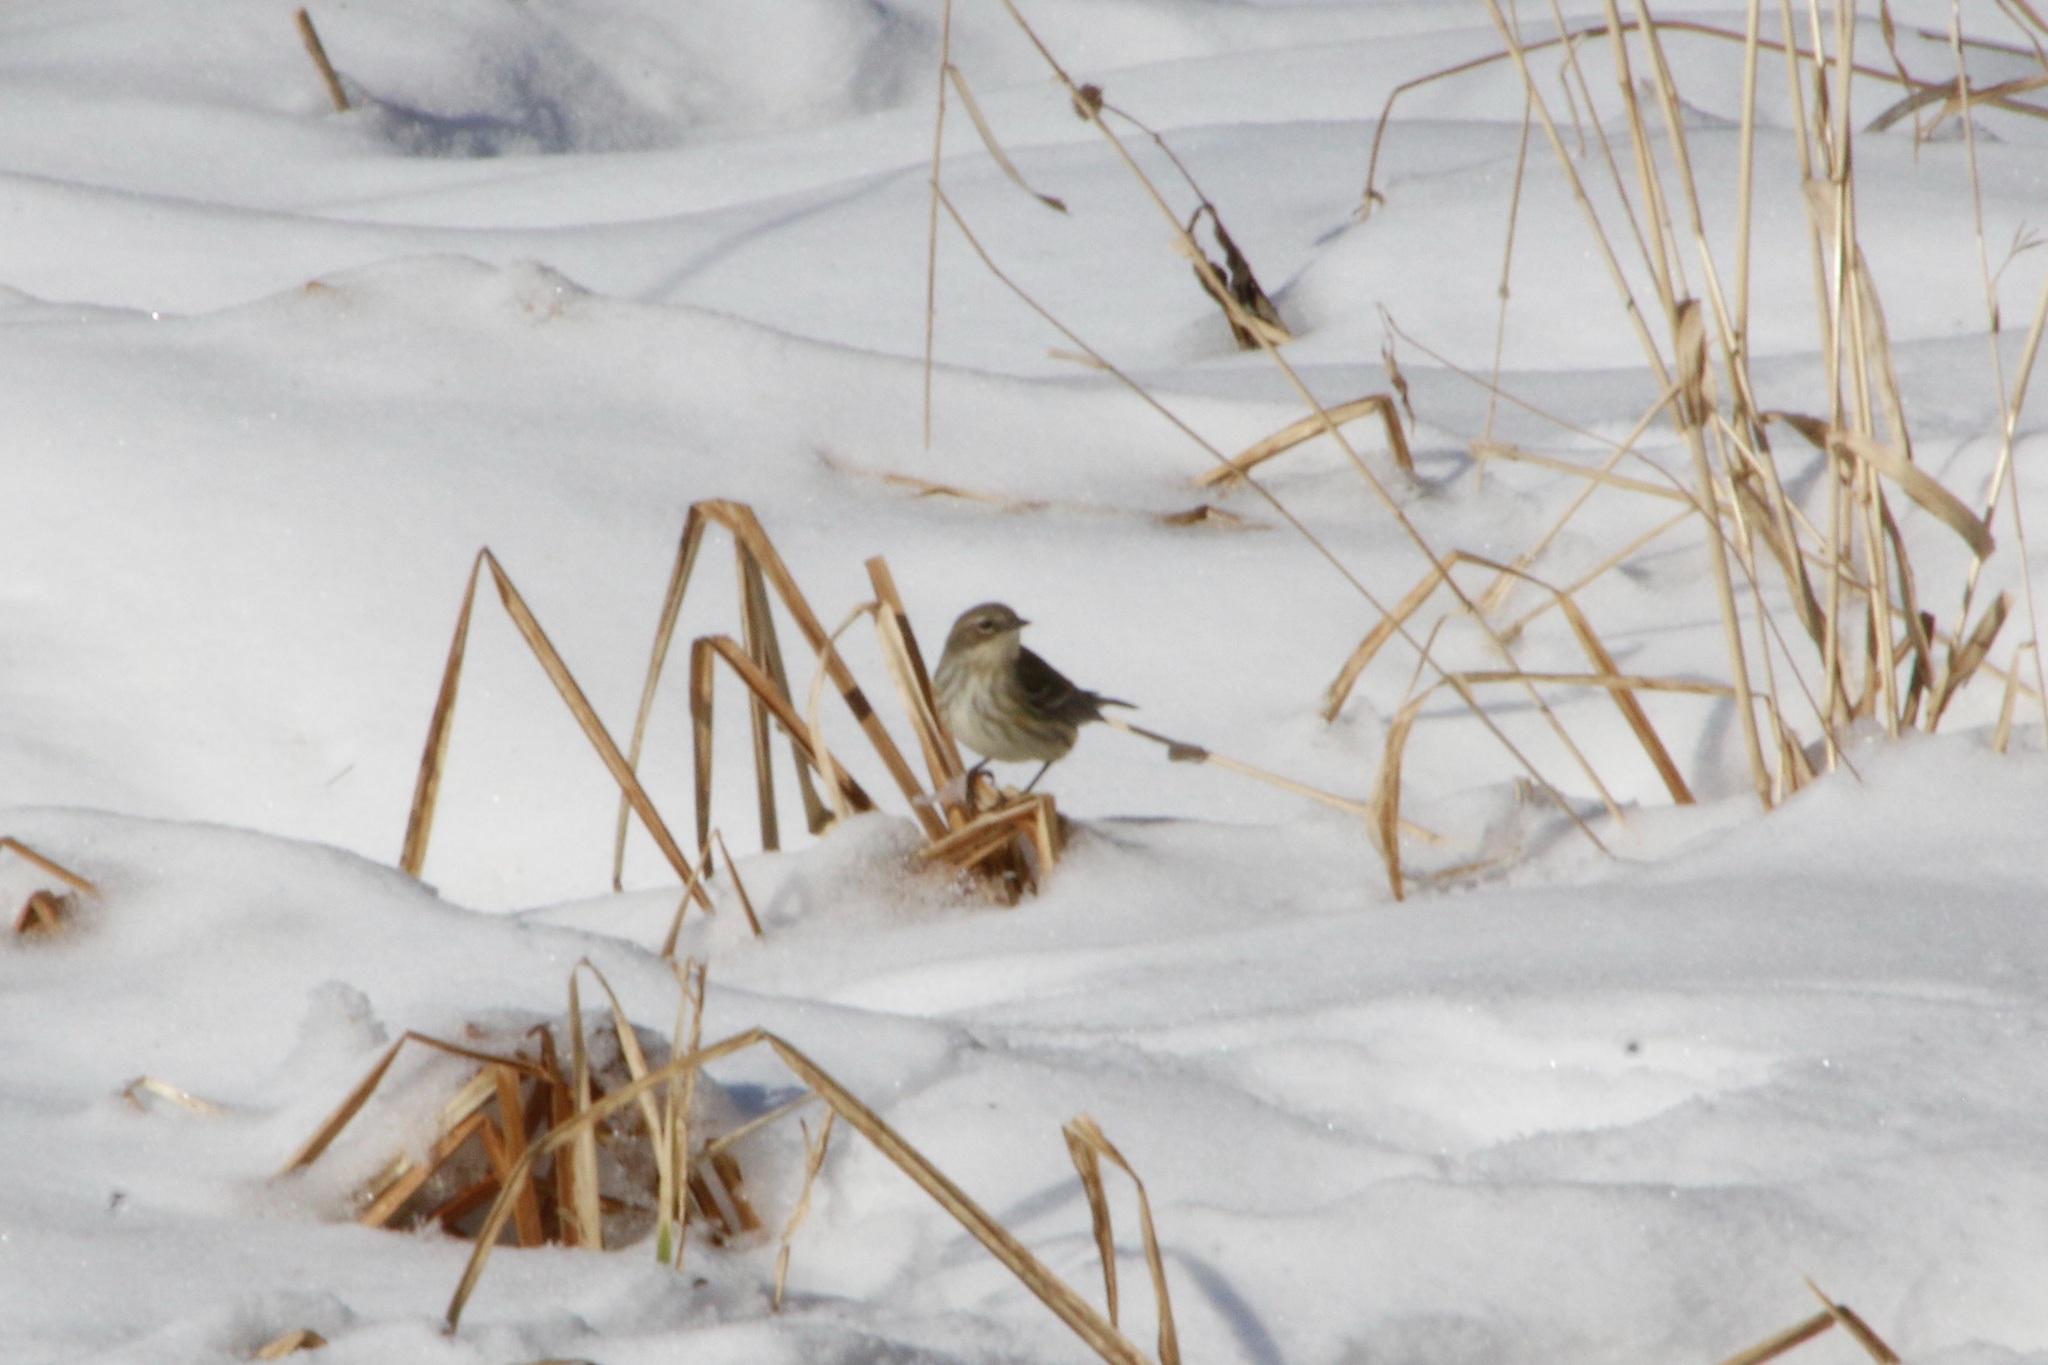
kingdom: Animalia
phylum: Chordata
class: Aves
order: Passeriformes
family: Parulidae
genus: Setophaga
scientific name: Setophaga coronata
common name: Myrtle warbler
